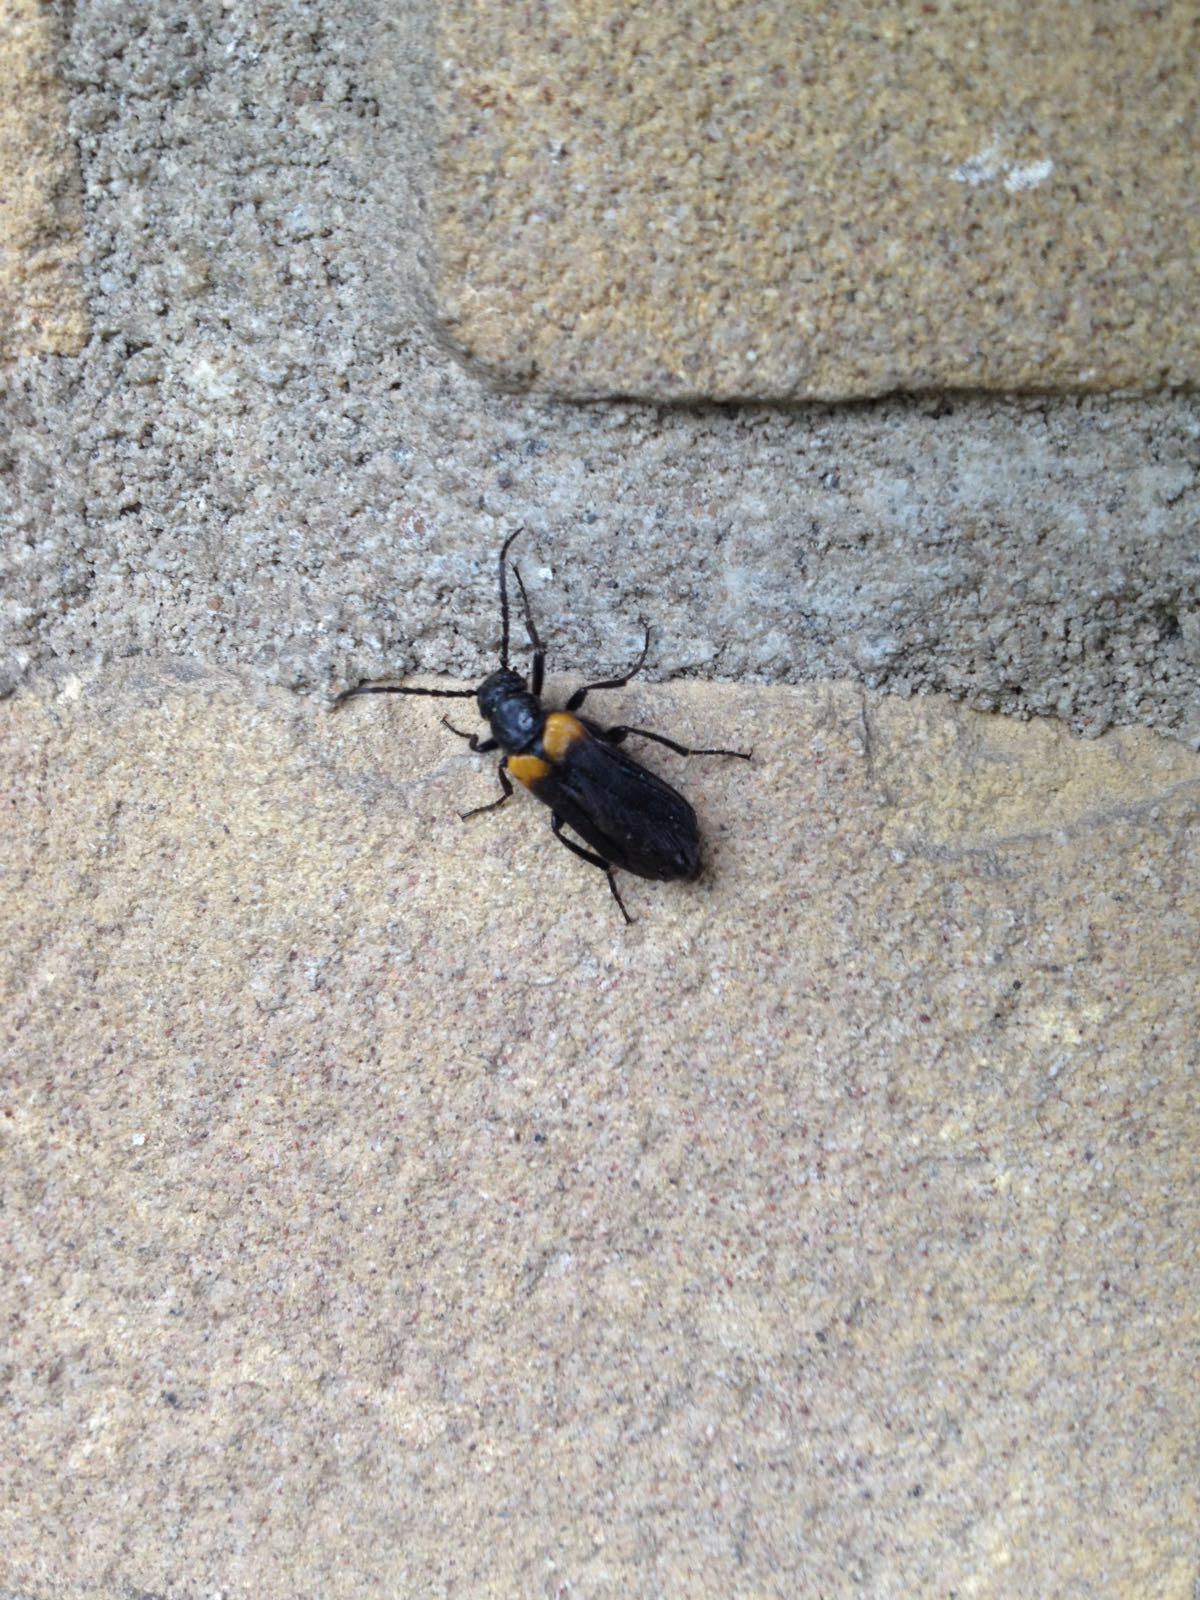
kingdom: Animalia
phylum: Arthropoda
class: Insecta
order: Coleoptera
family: Meloidae
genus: Sitaris
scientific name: Sitaris muralis
